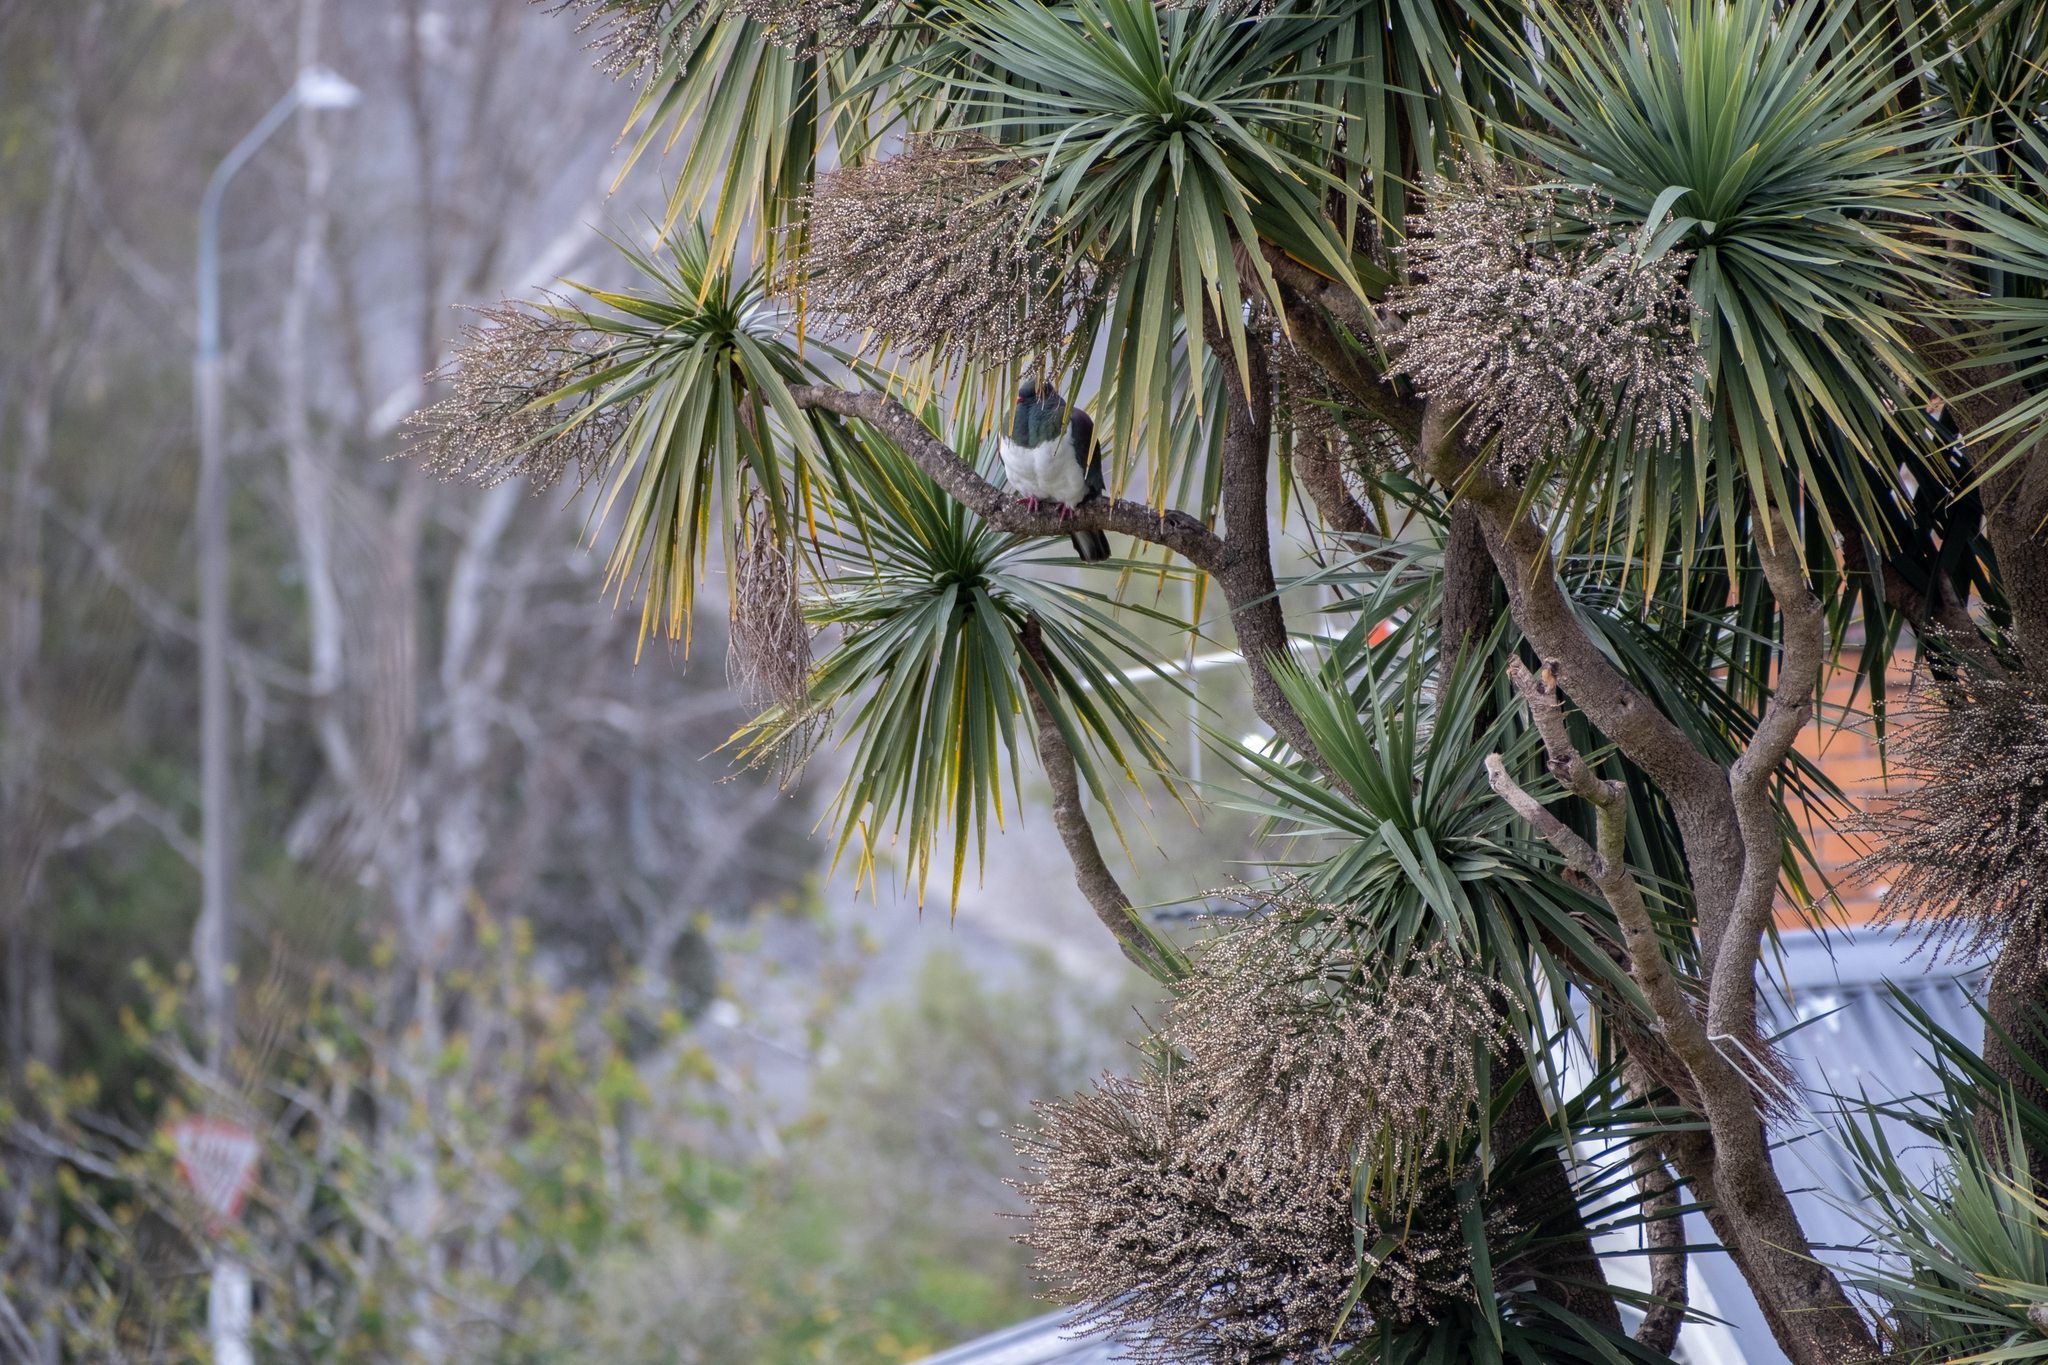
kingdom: Animalia
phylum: Chordata
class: Aves
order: Columbiformes
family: Columbidae
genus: Hemiphaga
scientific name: Hemiphaga novaeseelandiae
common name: New zealand pigeon
